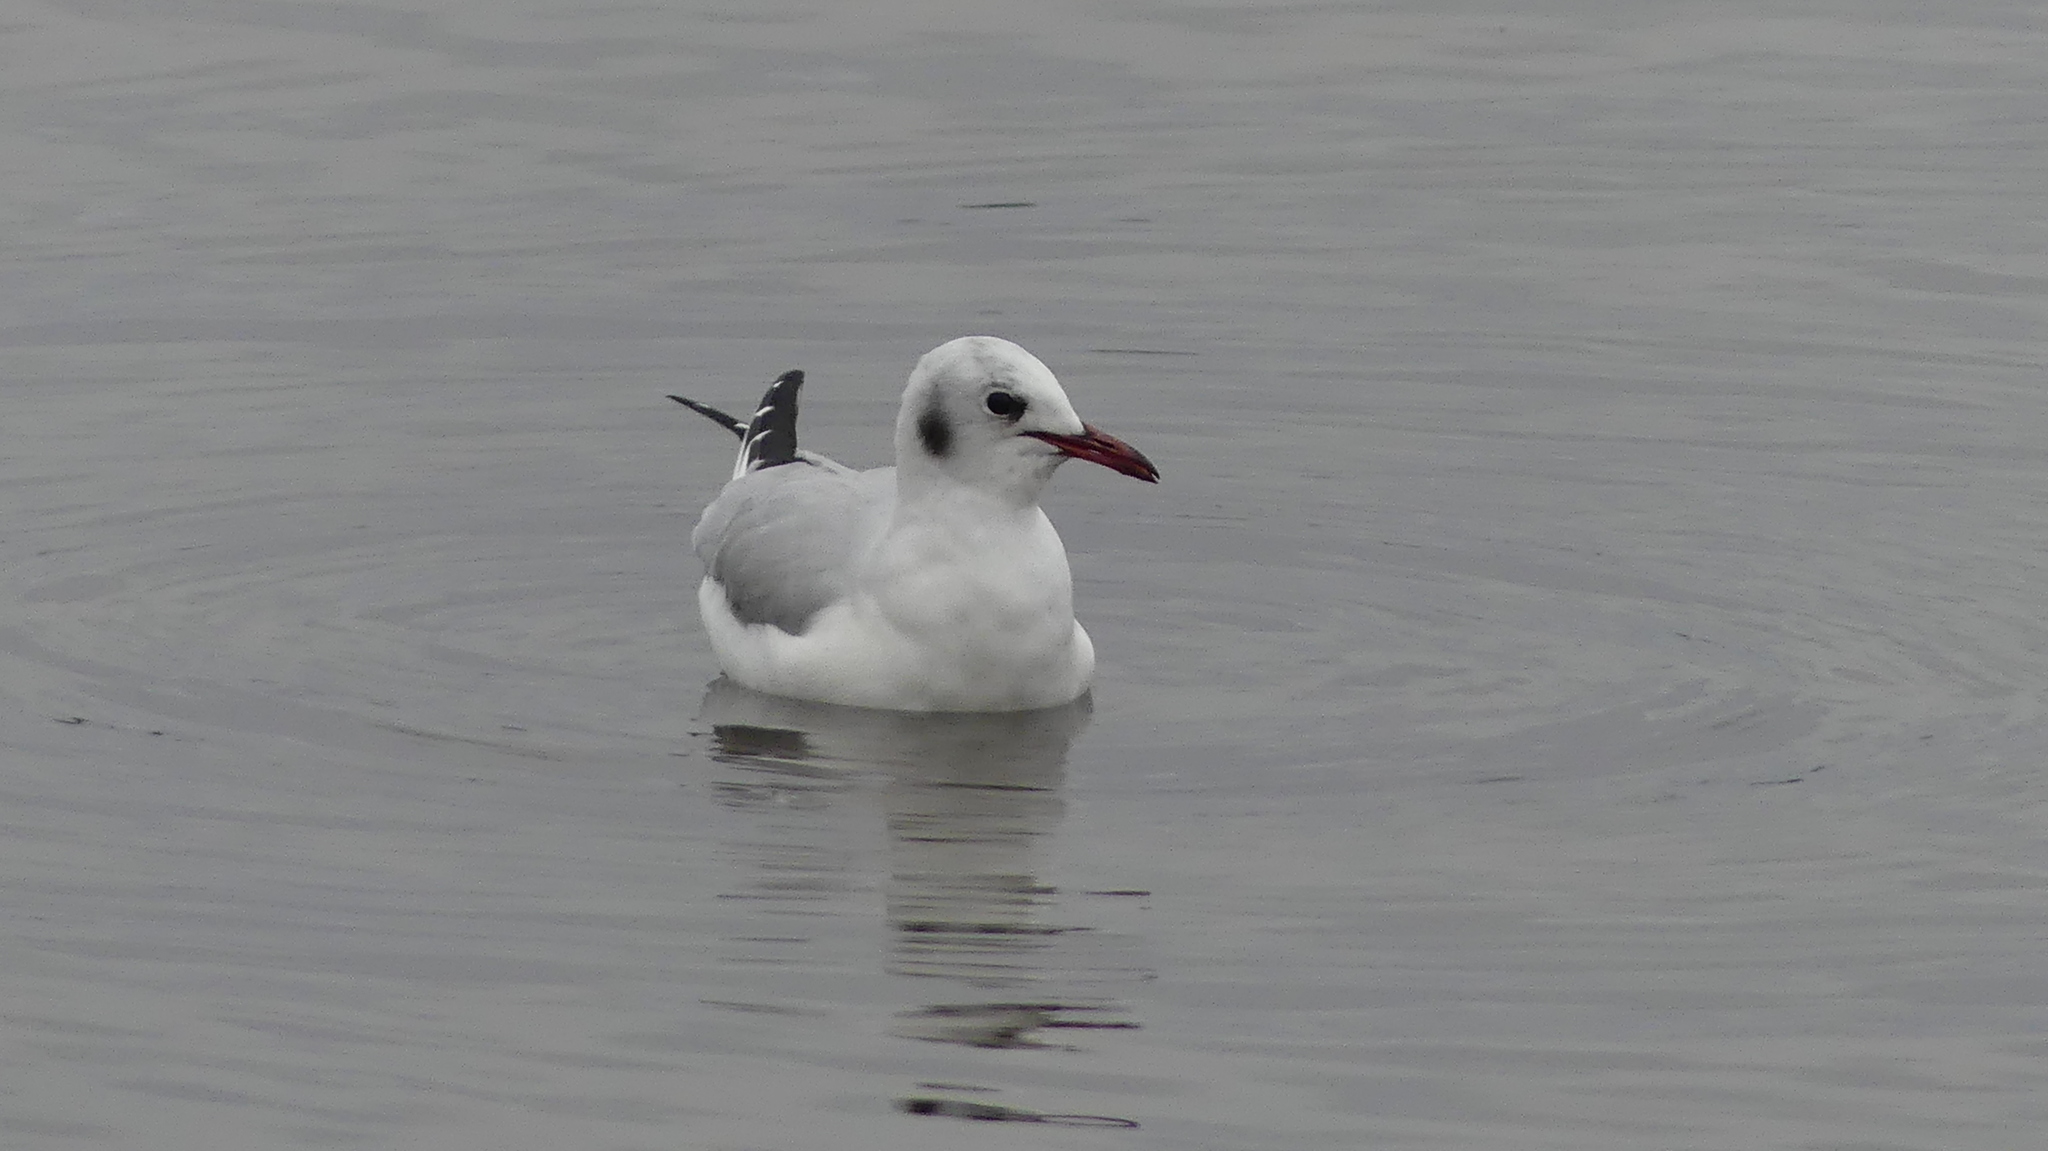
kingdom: Animalia
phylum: Chordata
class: Aves
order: Charadriiformes
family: Laridae
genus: Chroicocephalus
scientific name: Chroicocephalus ridibundus
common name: Black-headed gull
